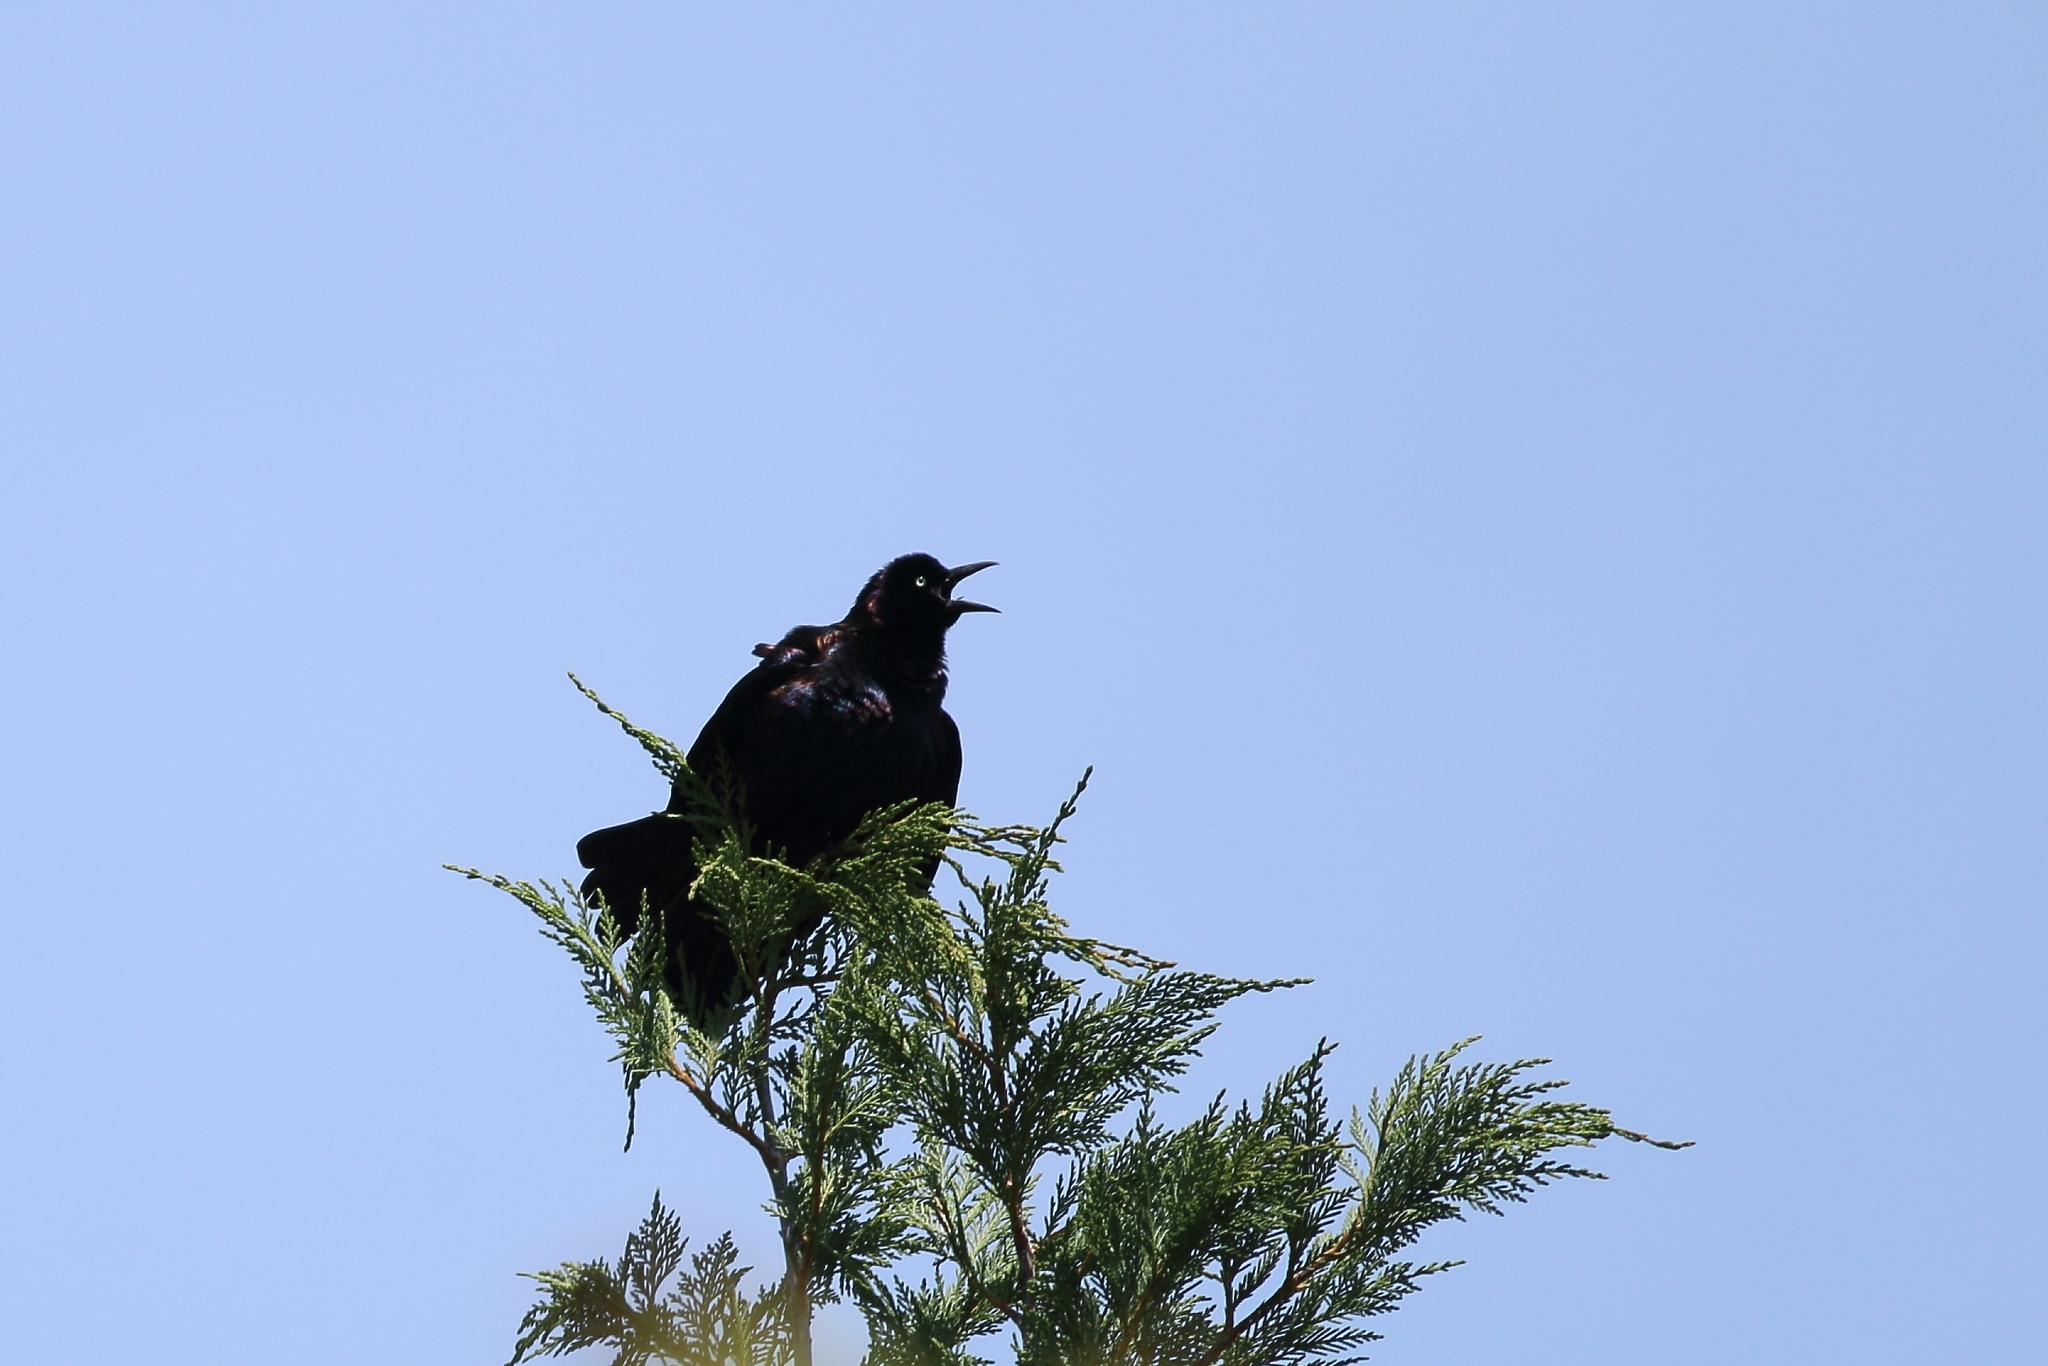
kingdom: Animalia
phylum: Chordata
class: Aves
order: Passeriformes
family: Icteridae
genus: Quiscalus
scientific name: Quiscalus quiscula
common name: Common grackle
